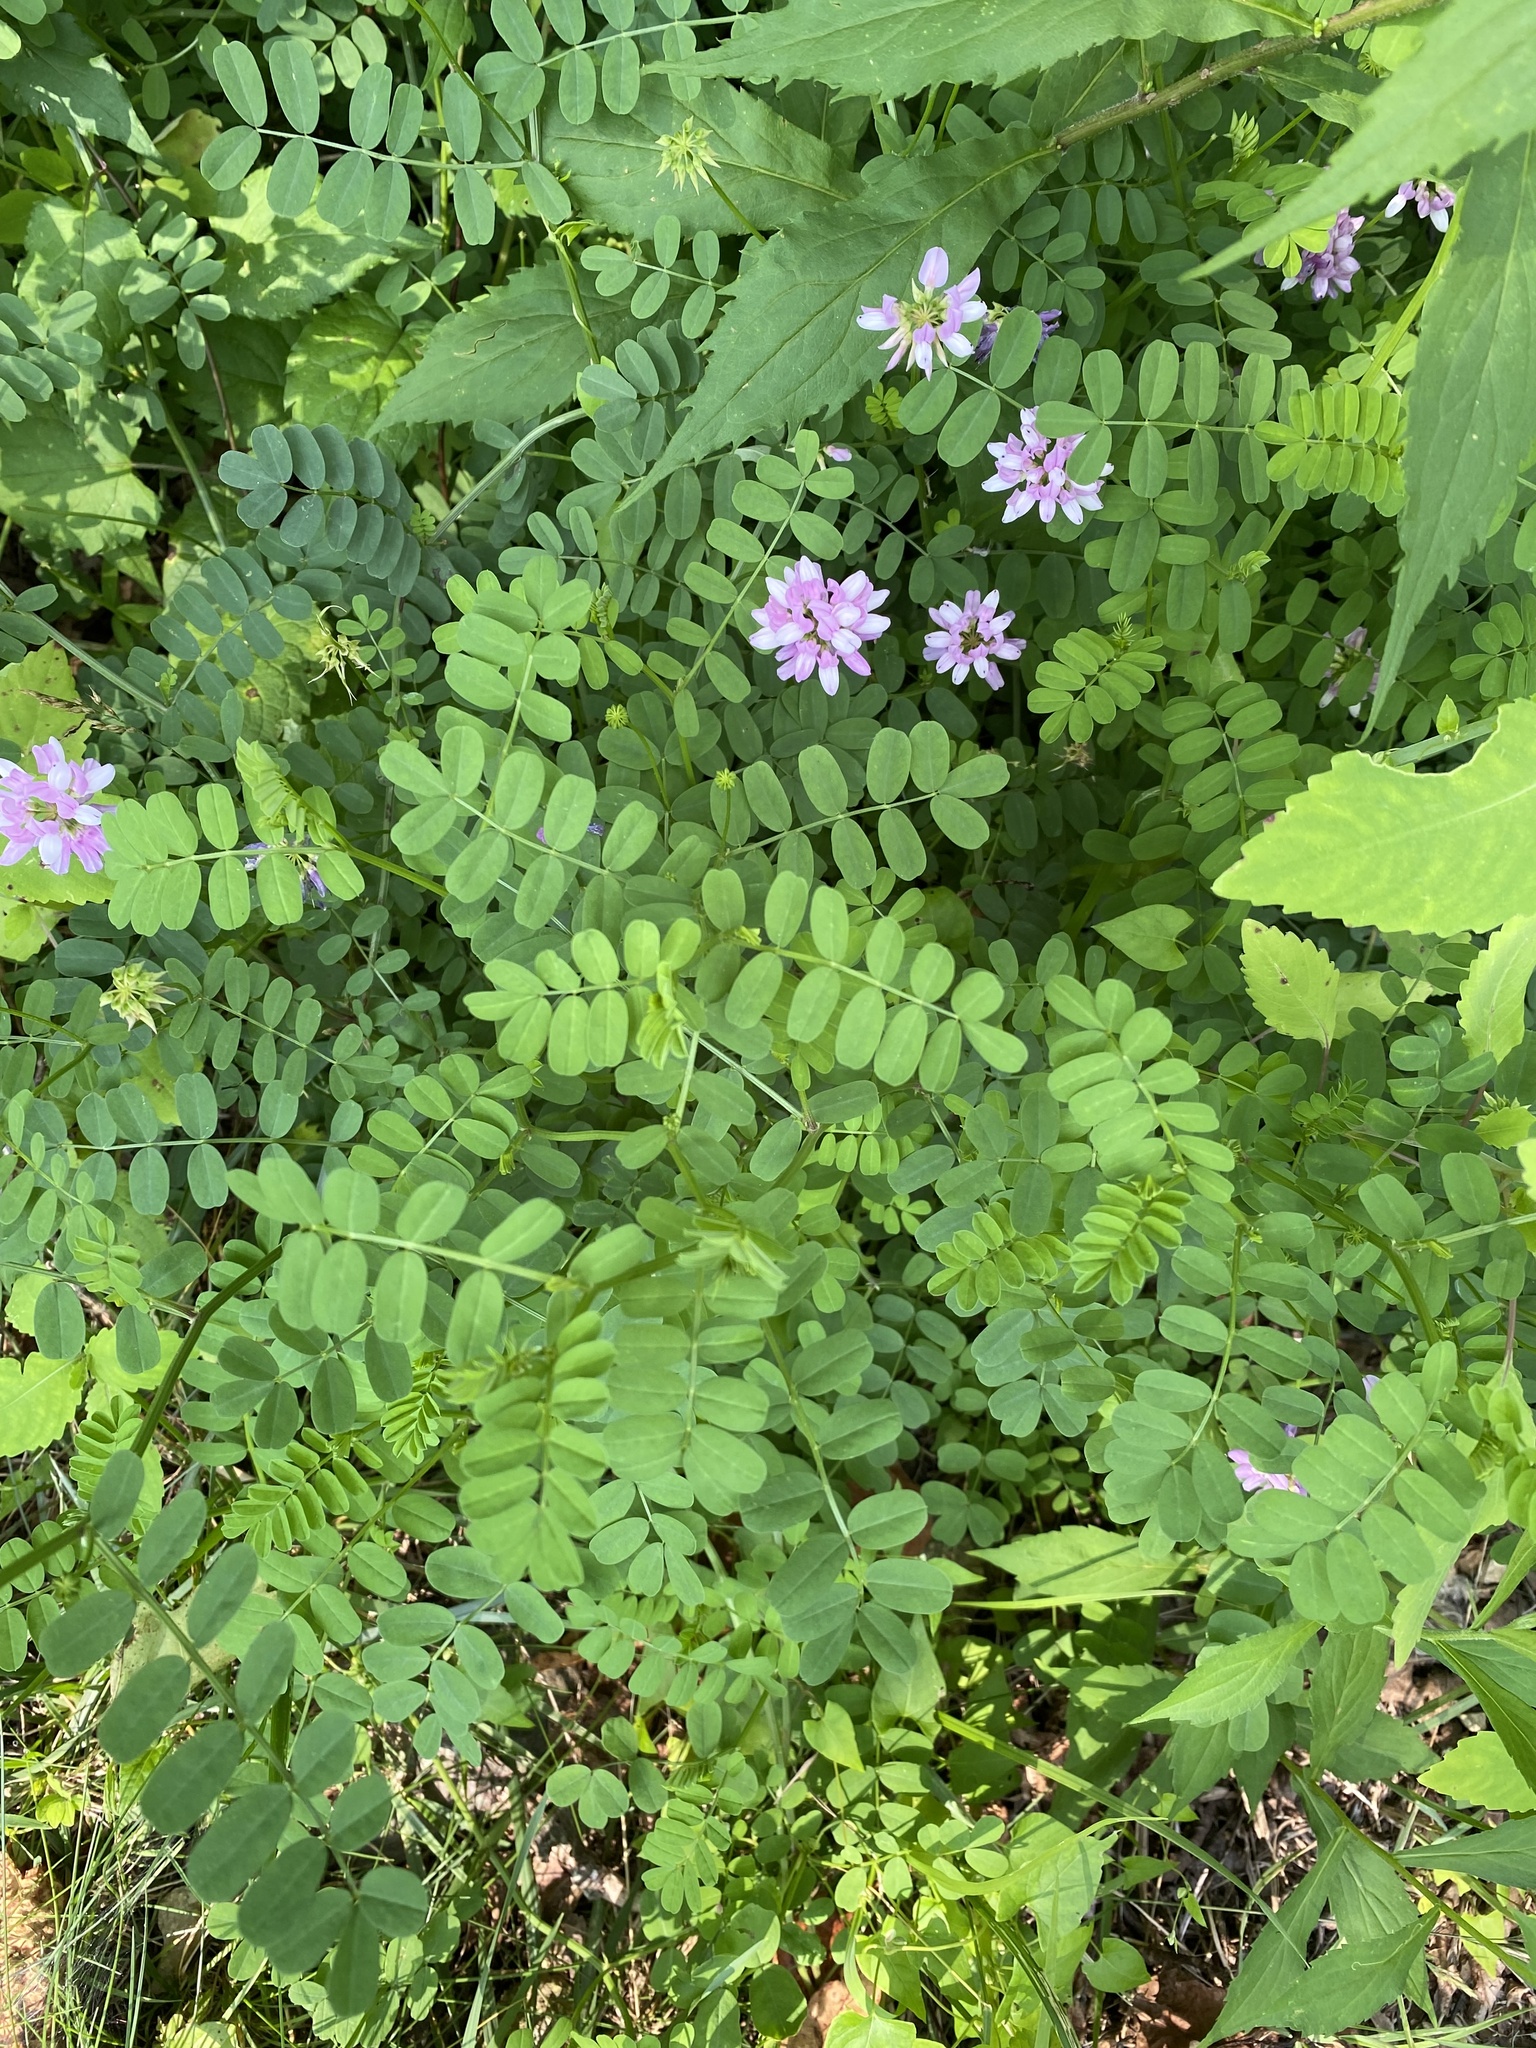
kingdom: Plantae
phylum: Tracheophyta
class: Magnoliopsida
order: Fabales
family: Fabaceae
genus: Coronilla
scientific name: Coronilla varia
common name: Crownvetch
